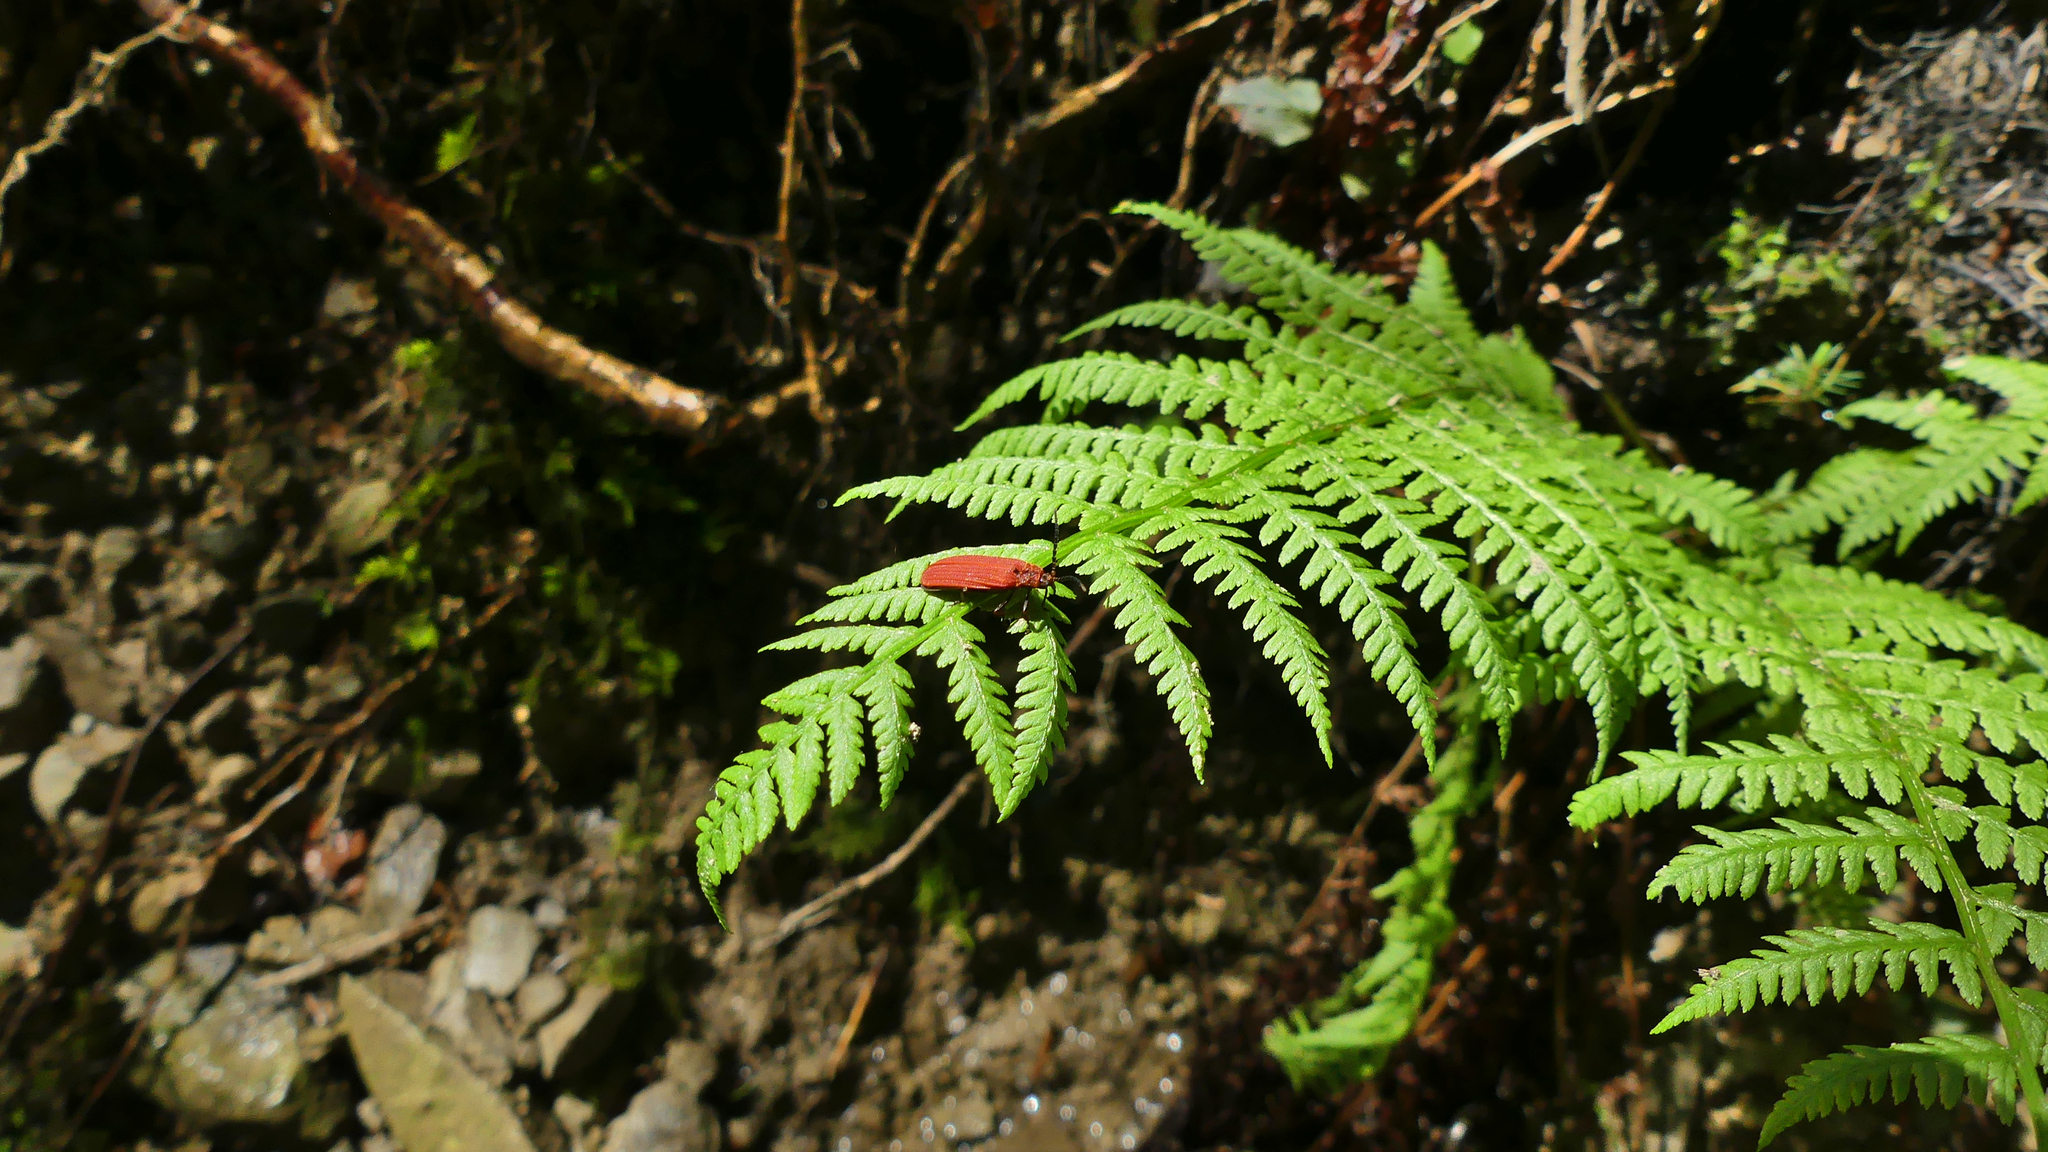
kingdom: Animalia
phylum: Arthropoda
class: Insecta
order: Coleoptera
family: Lycidae
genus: Dictyoptera
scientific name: Dictyoptera aurora
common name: Golden net-winged beetle
